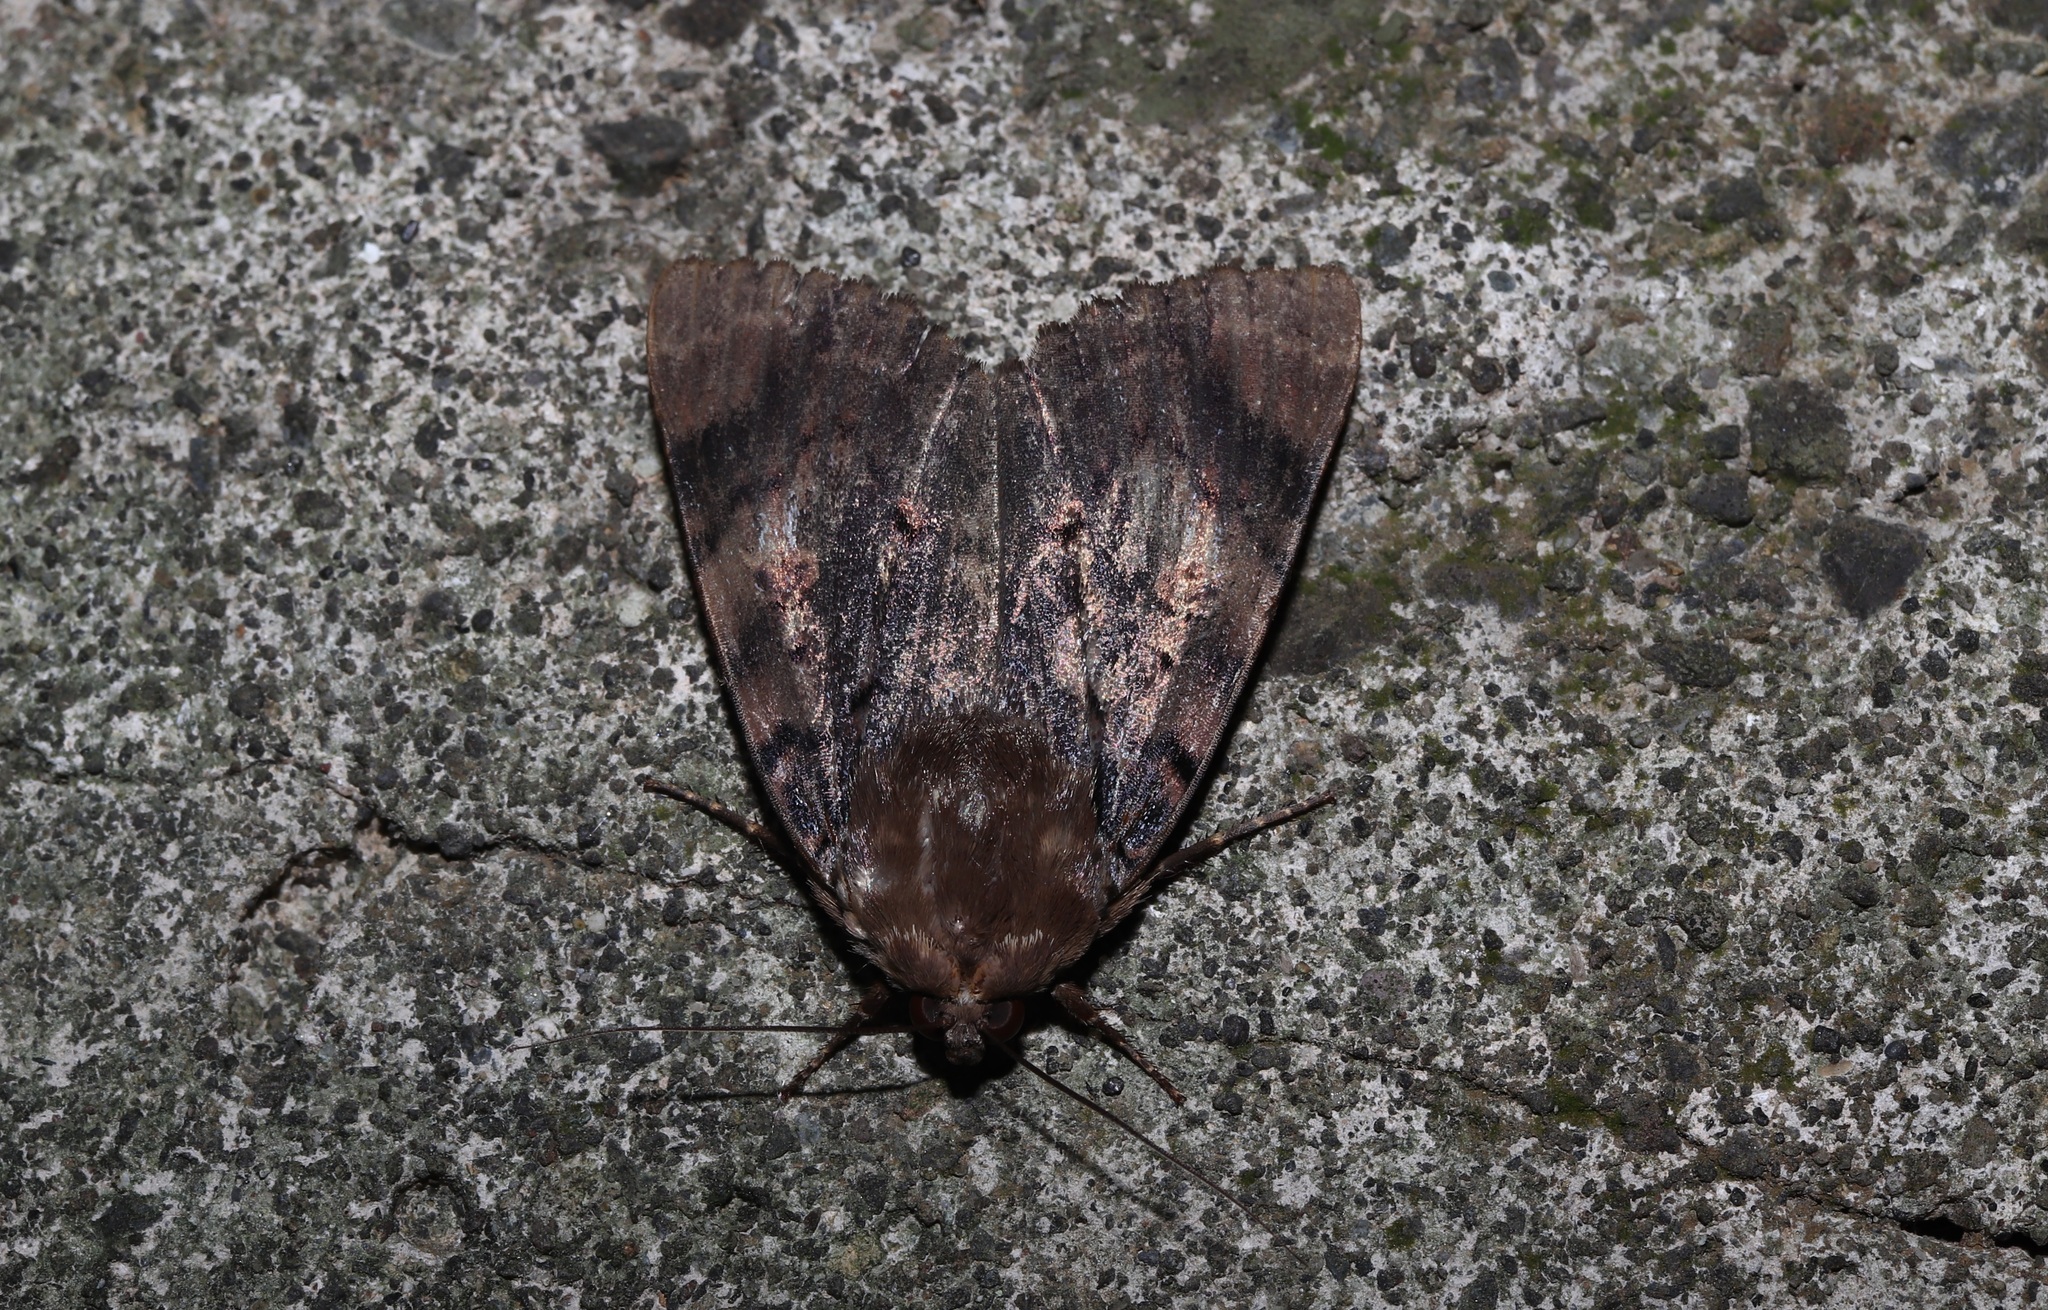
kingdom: Animalia
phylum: Arthropoda
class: Insecta
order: Lepidoptera
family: Erebidae
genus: Arcte
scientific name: Arcte coerula
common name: Ramie moth
